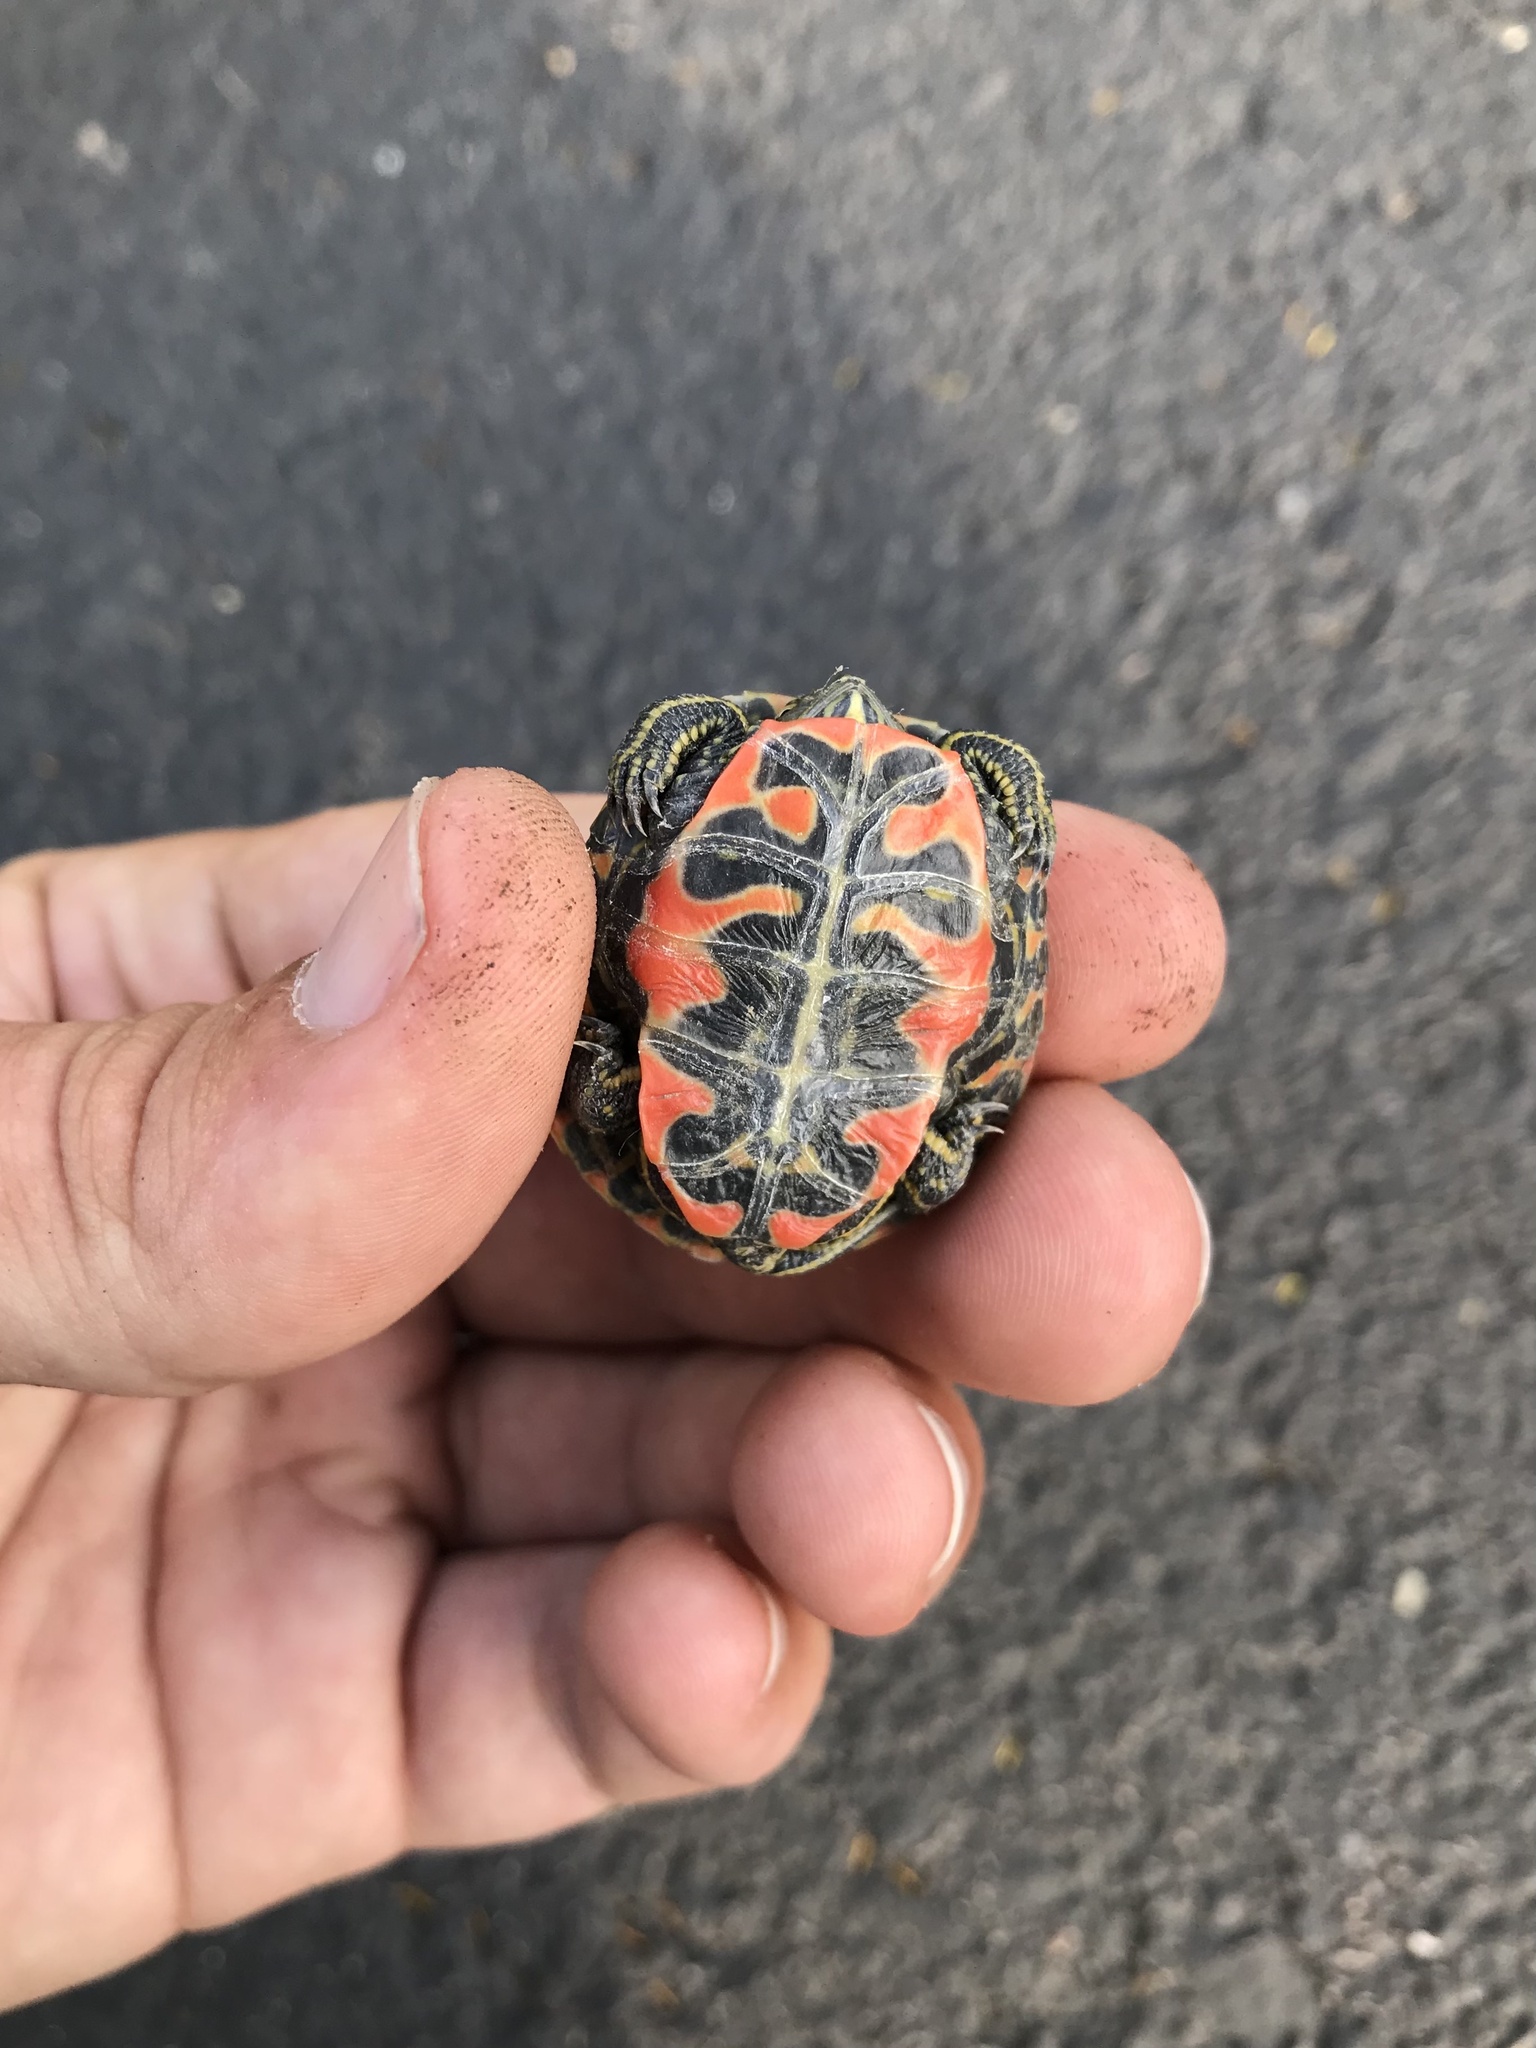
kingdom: Animalia
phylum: Chordata
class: Testudines
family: Emydidae
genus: Chrysemys
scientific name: Chrysemys picta
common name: Painted turtle
